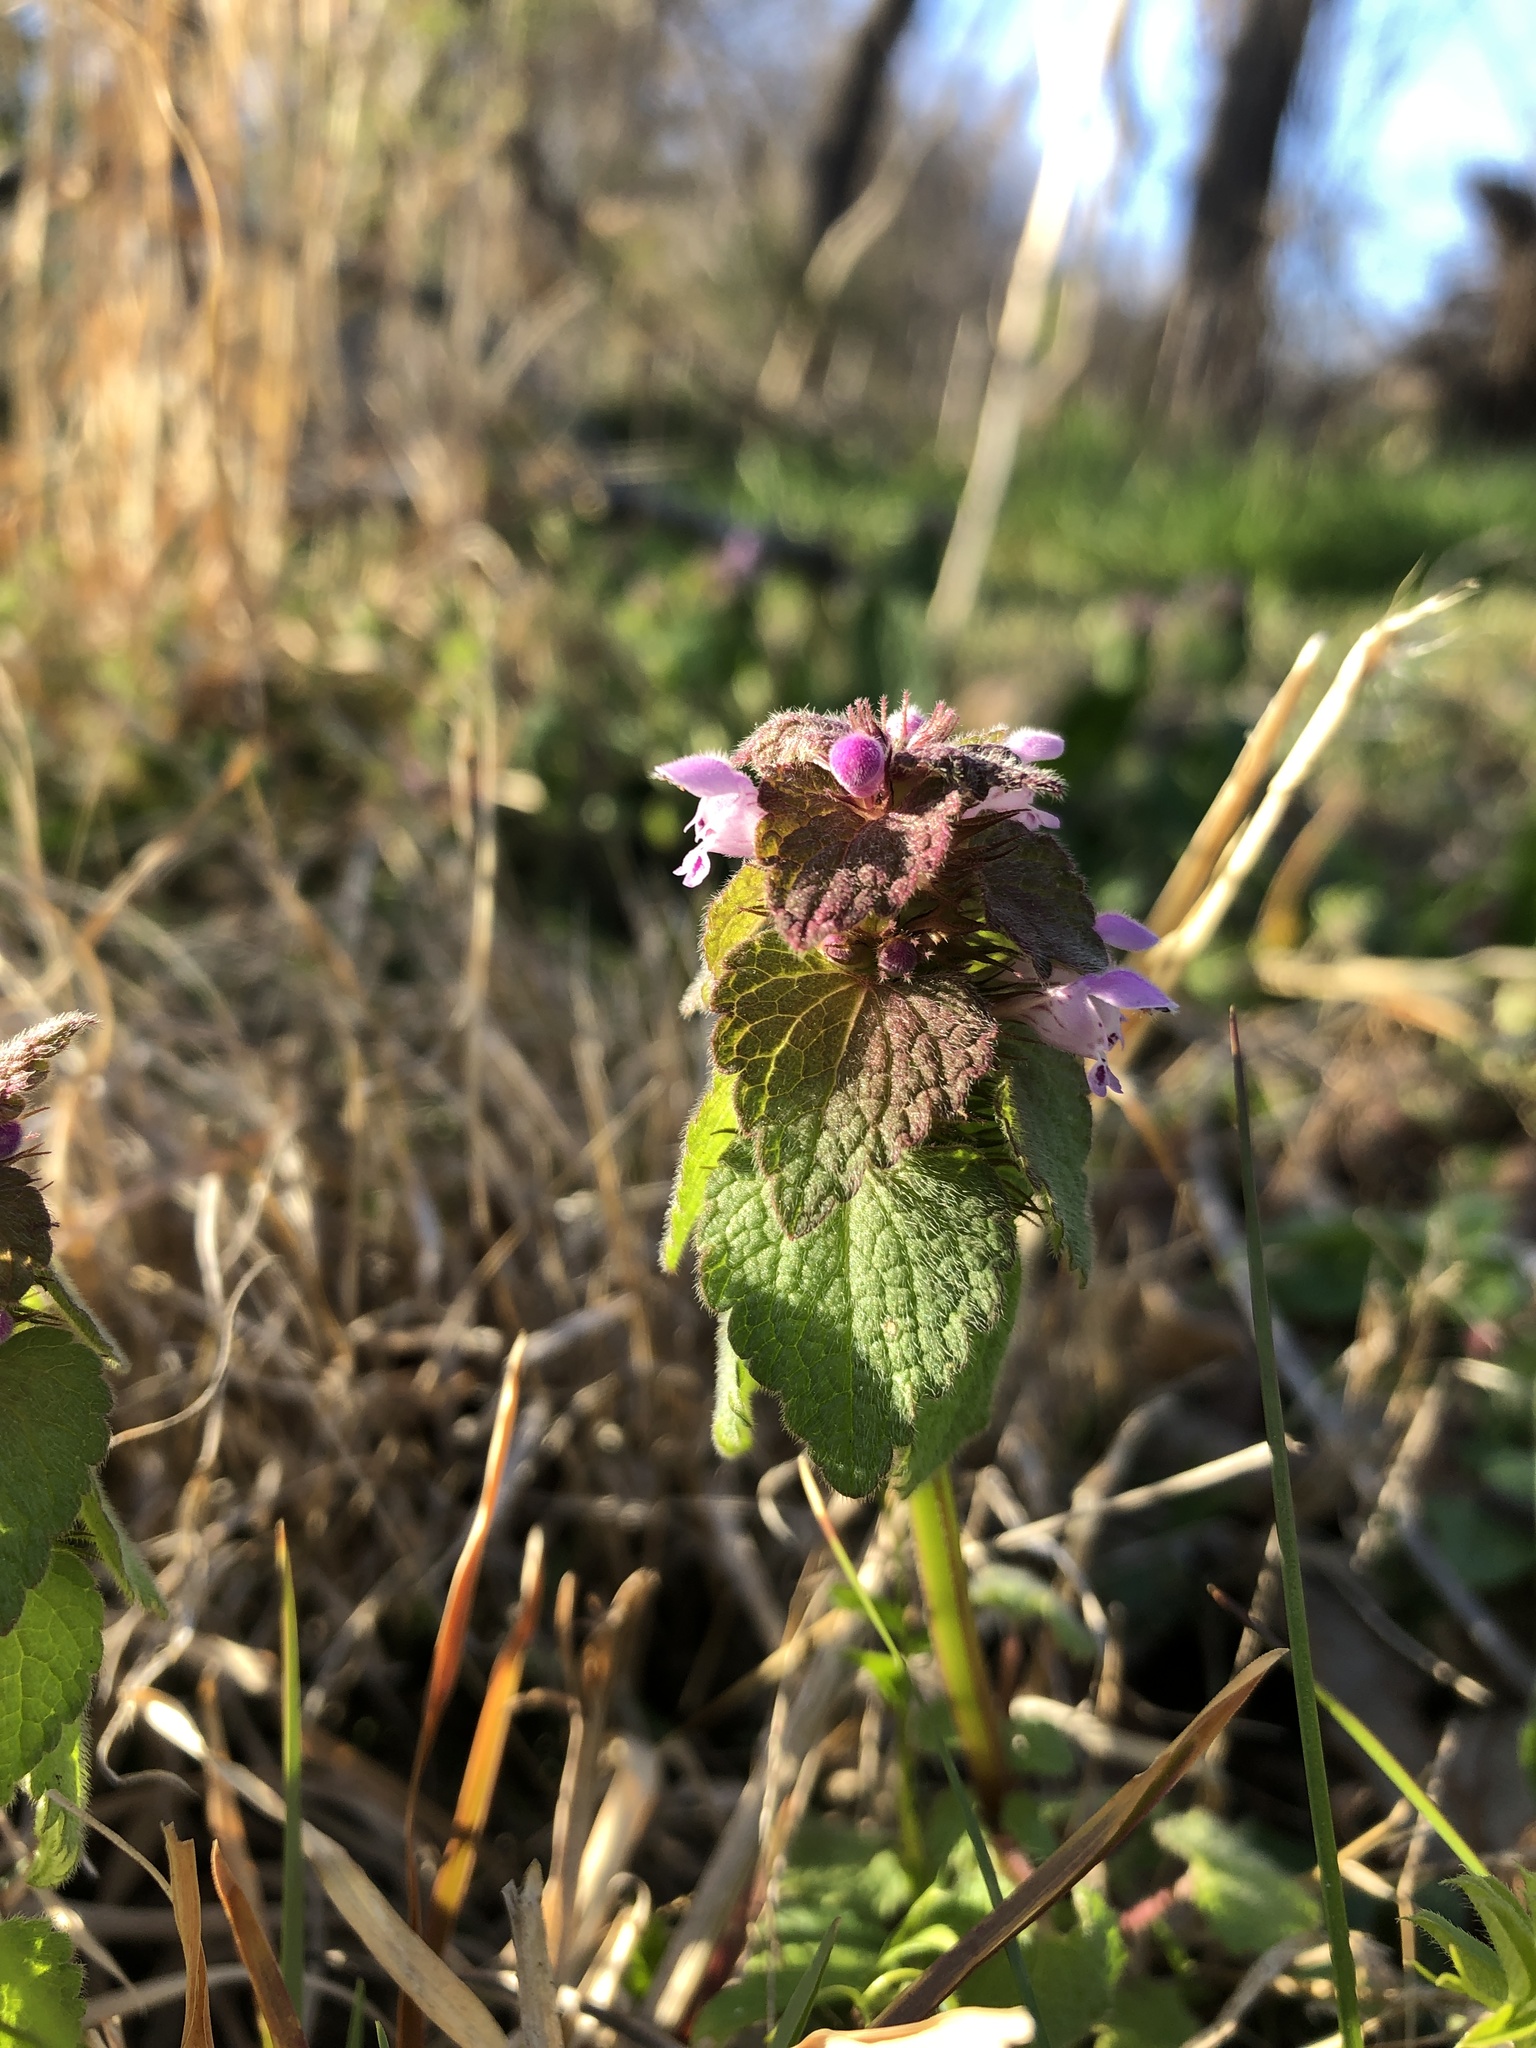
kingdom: Plantae
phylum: Tracheophyta
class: Magnoliopsida
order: Lamiales
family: Lamiaceae
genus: Lamium
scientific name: Lamium purpureum
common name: Red dead-nettle
